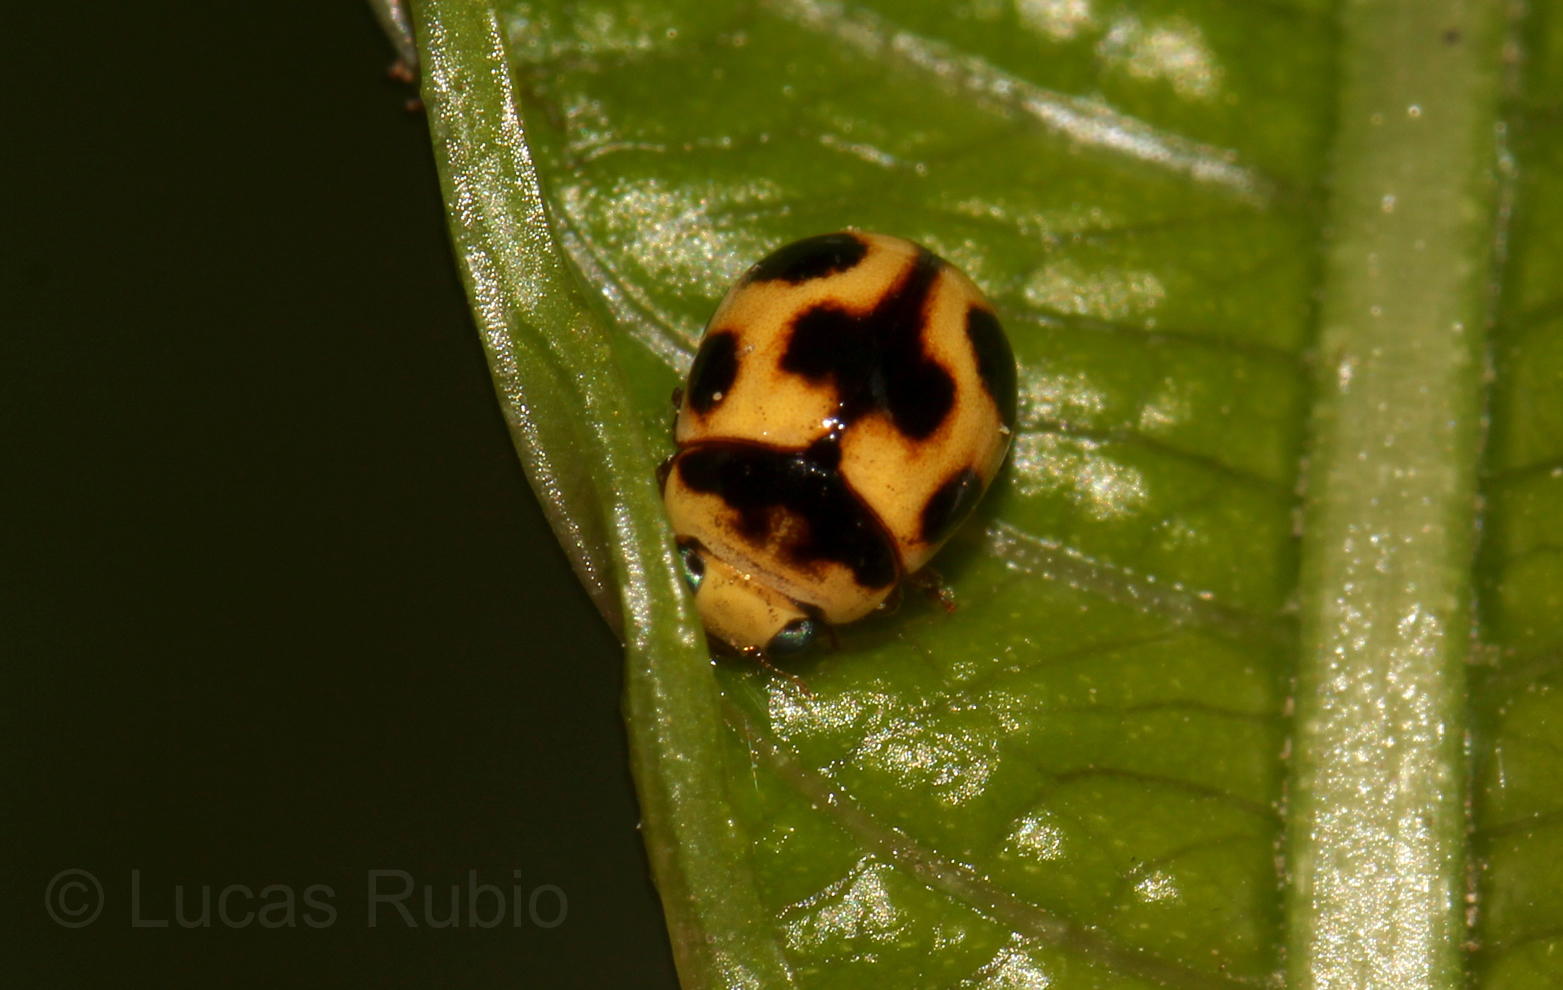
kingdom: Animalia
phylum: Arthropoda
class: Insecta
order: Coleoptera
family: Coccinellidae
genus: Dilatitibialis
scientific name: Dilatitibialis
